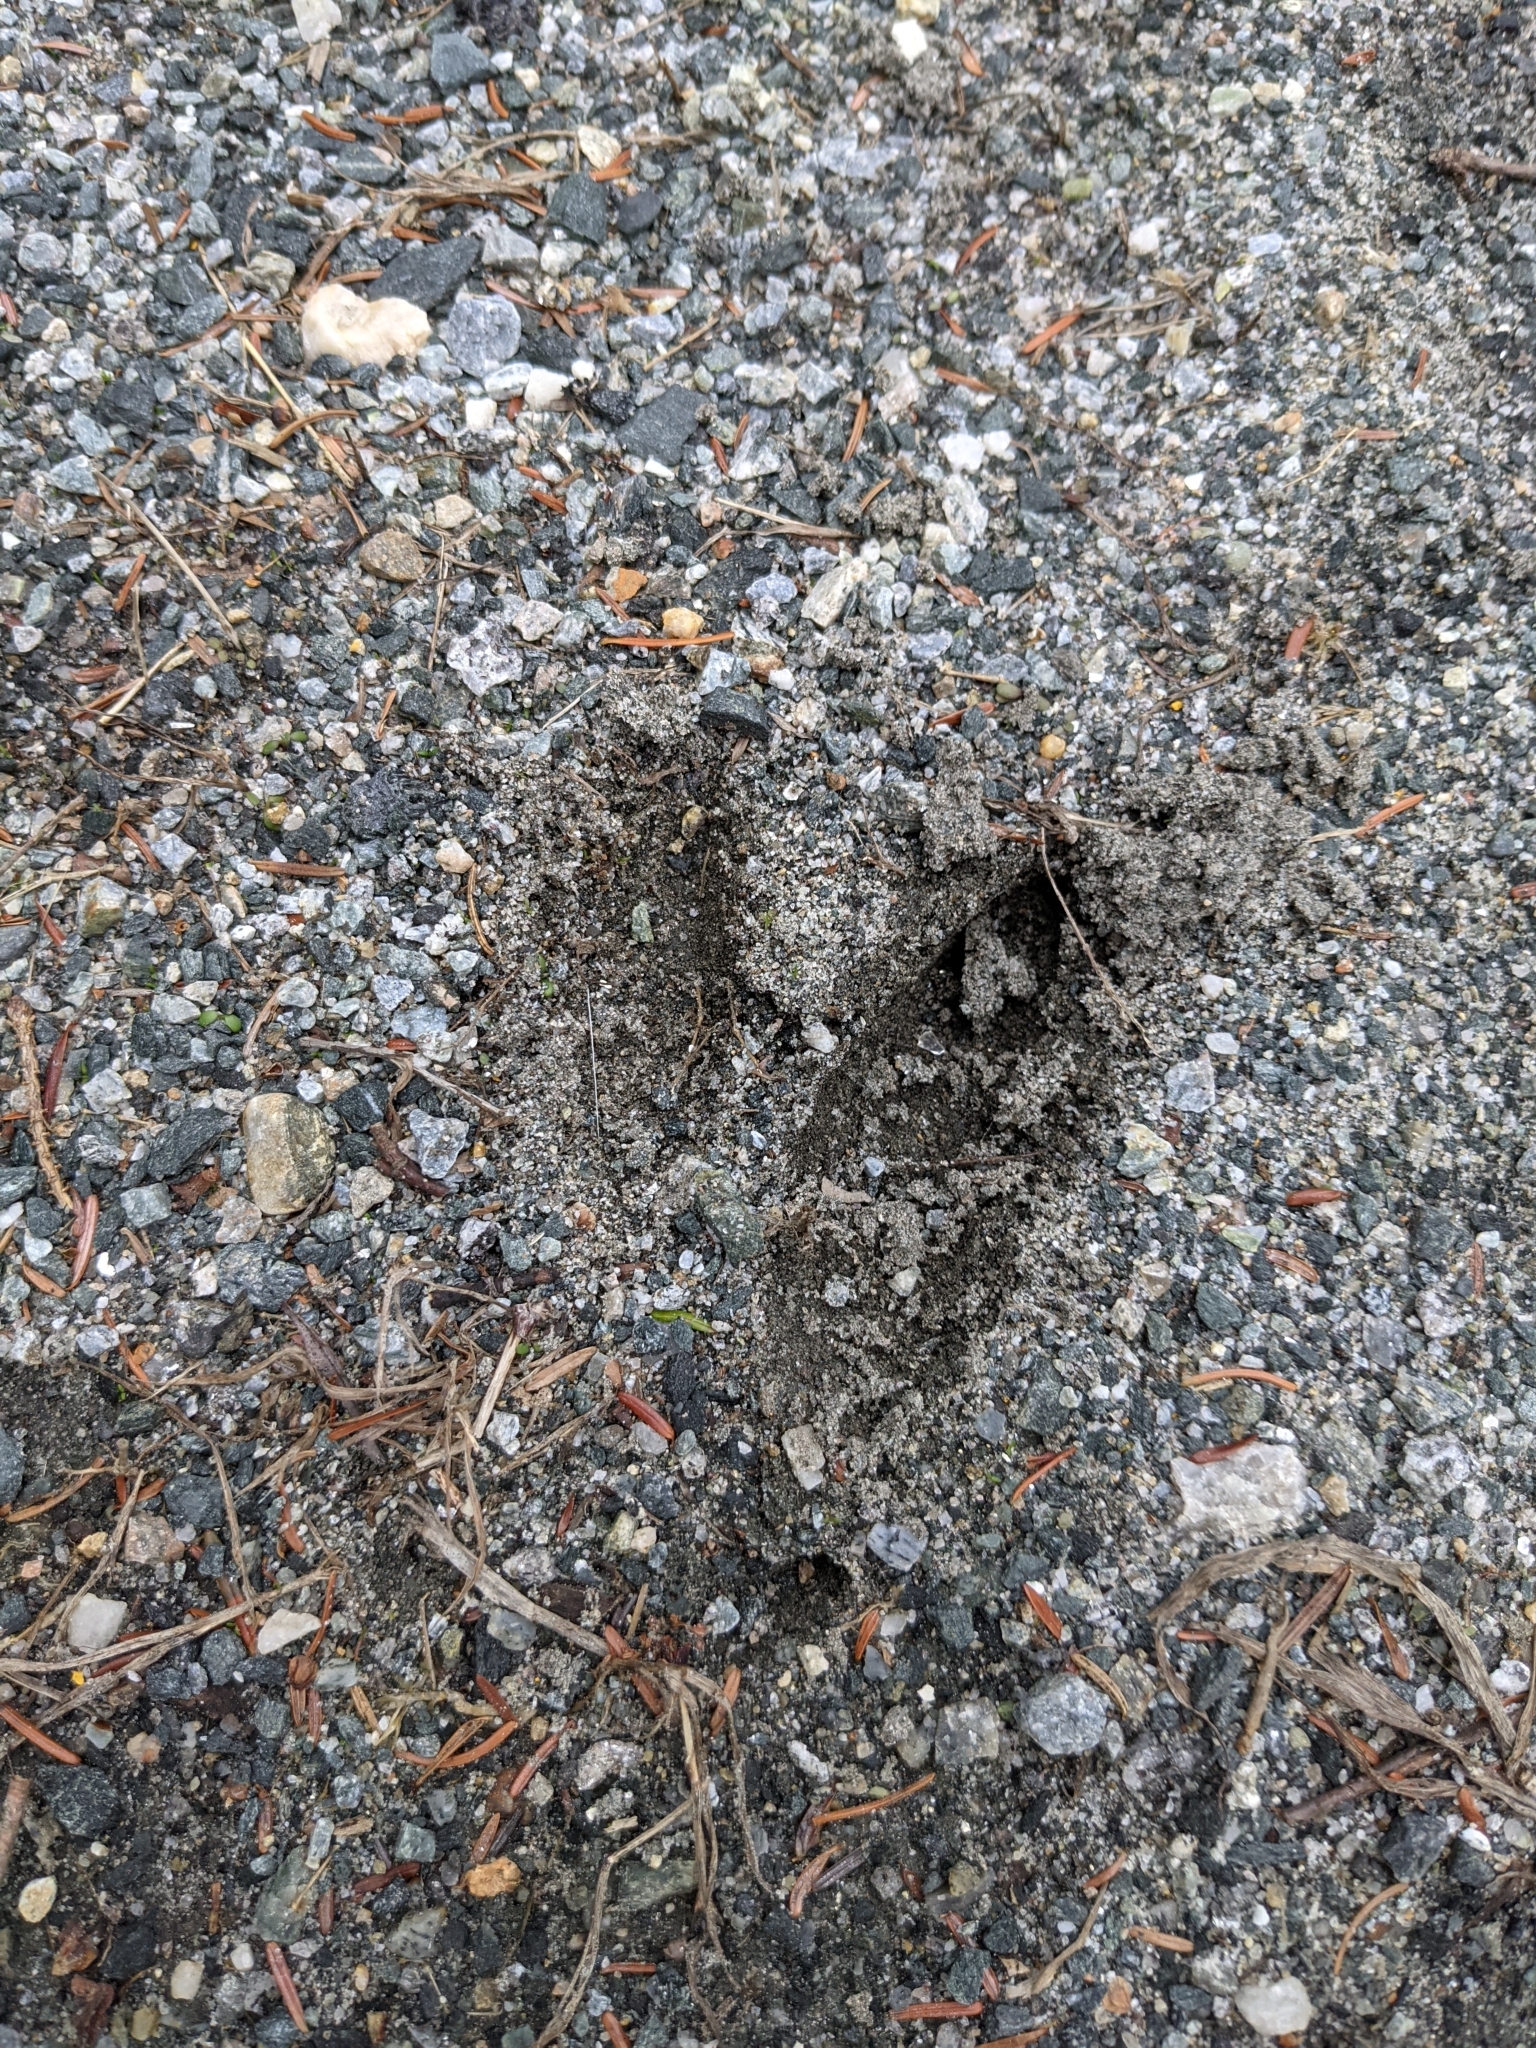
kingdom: Animalia
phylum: Chordata
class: Mammalia
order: Artiodactyla
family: Cervidae
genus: Odocoileus
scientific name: Odocoileus virginianus
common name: White-tailed deer
